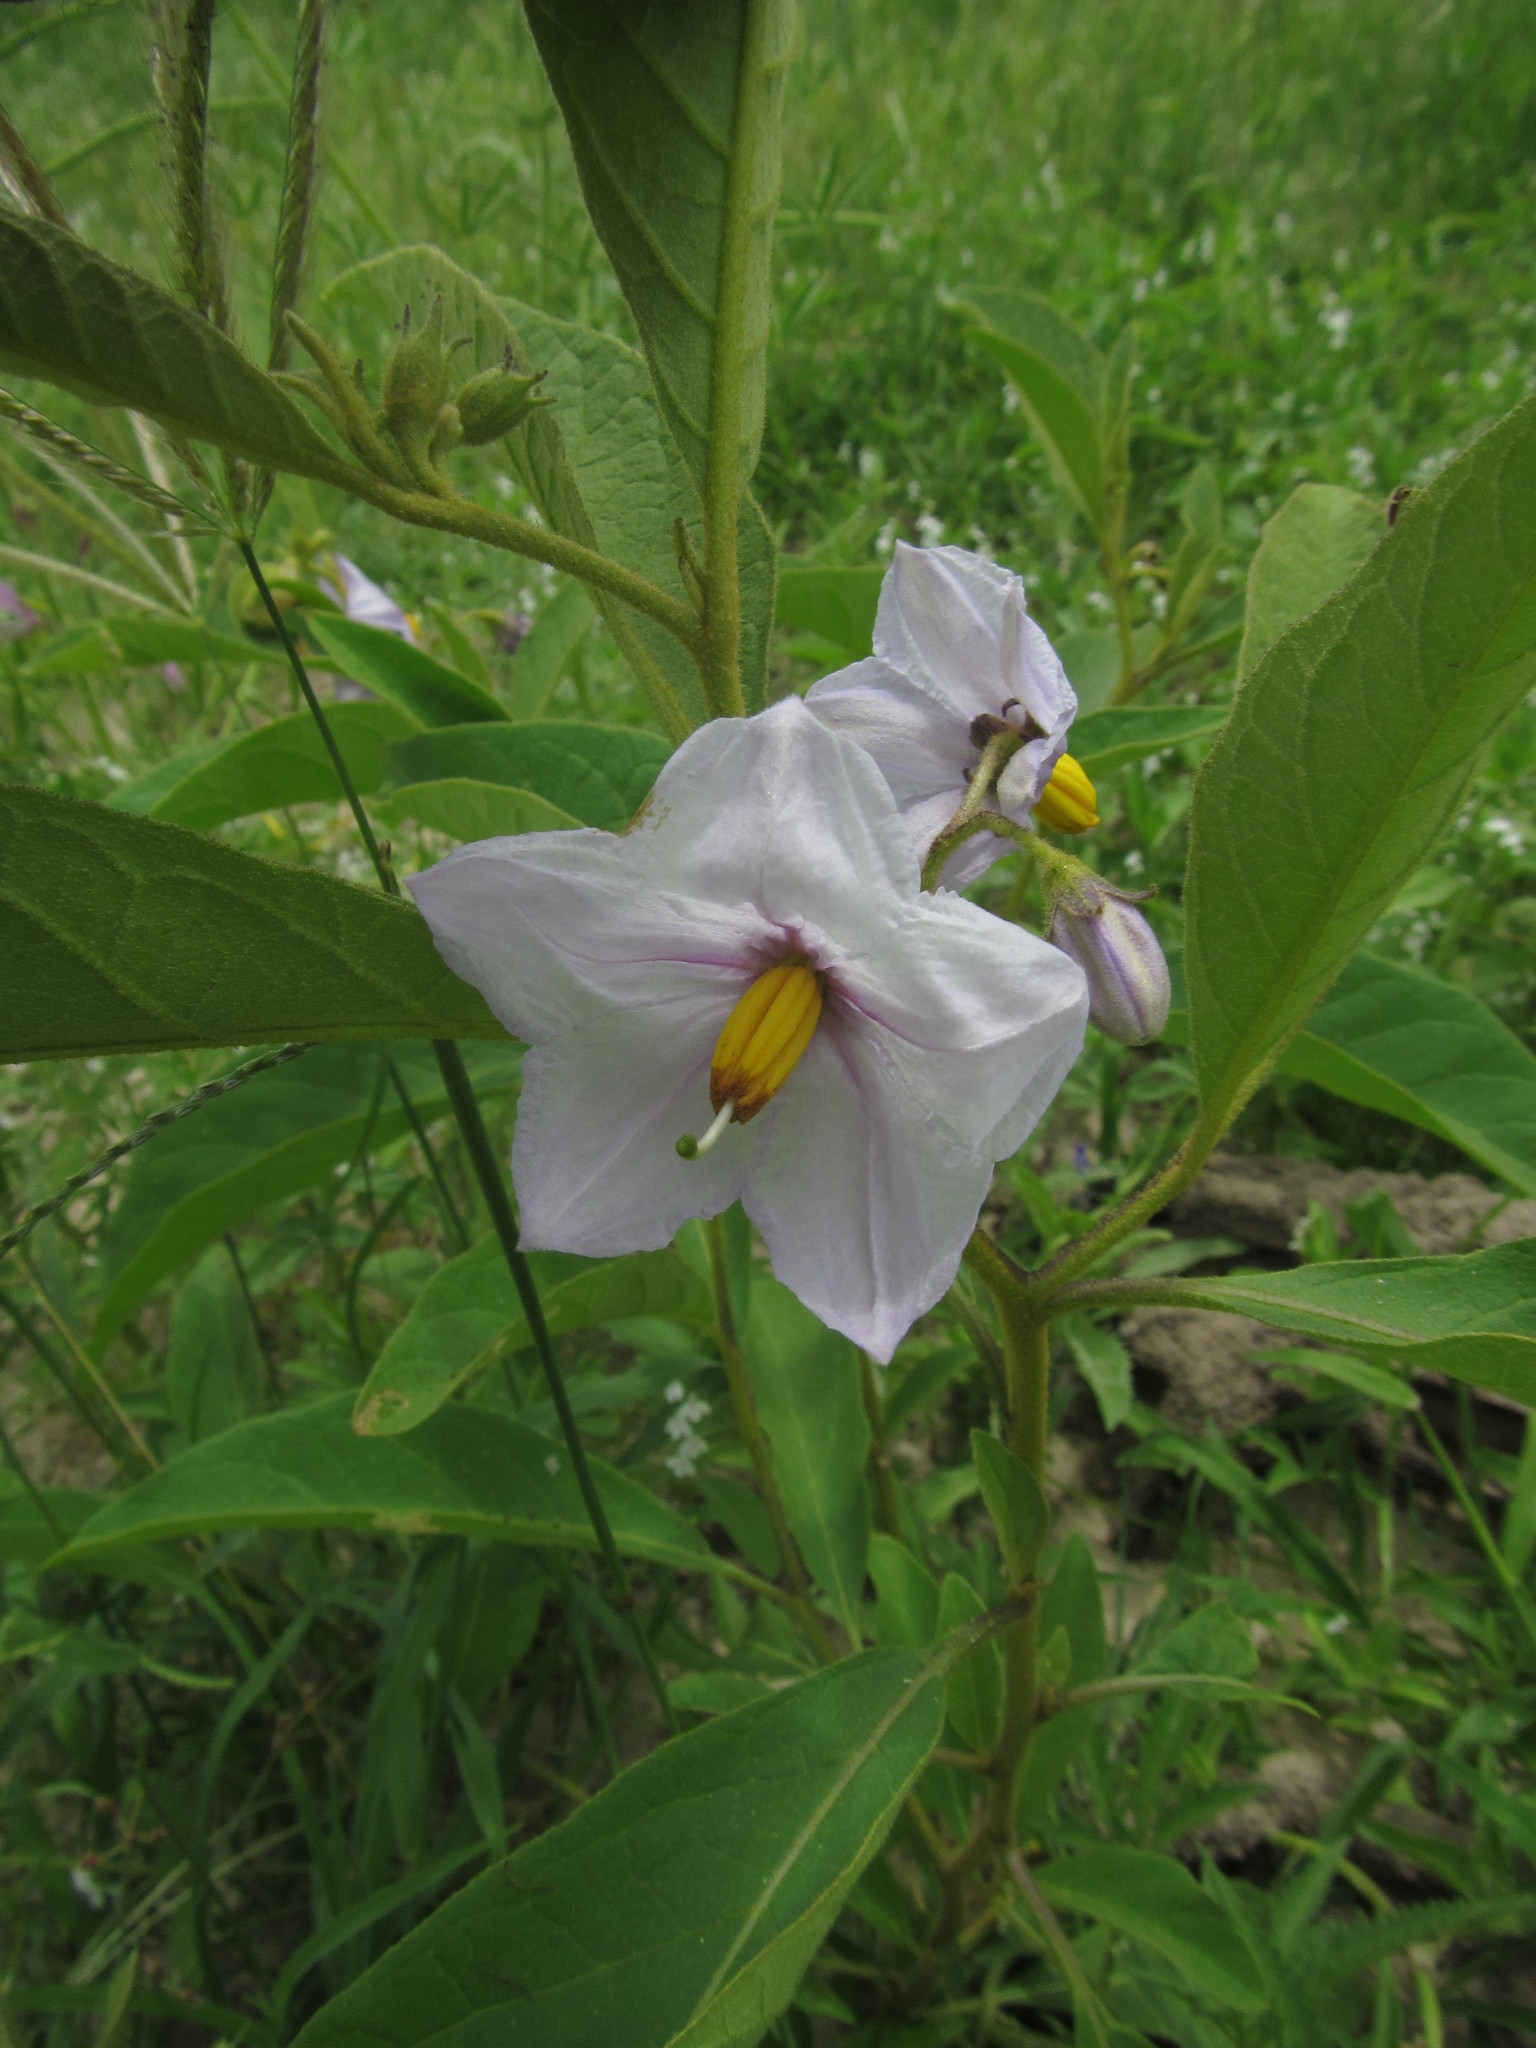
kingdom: Plantae
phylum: Tracheophyta
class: Magnoliopsida
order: Solanales
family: Solanaceae
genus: Solanum
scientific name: Solanum campylacanthum
